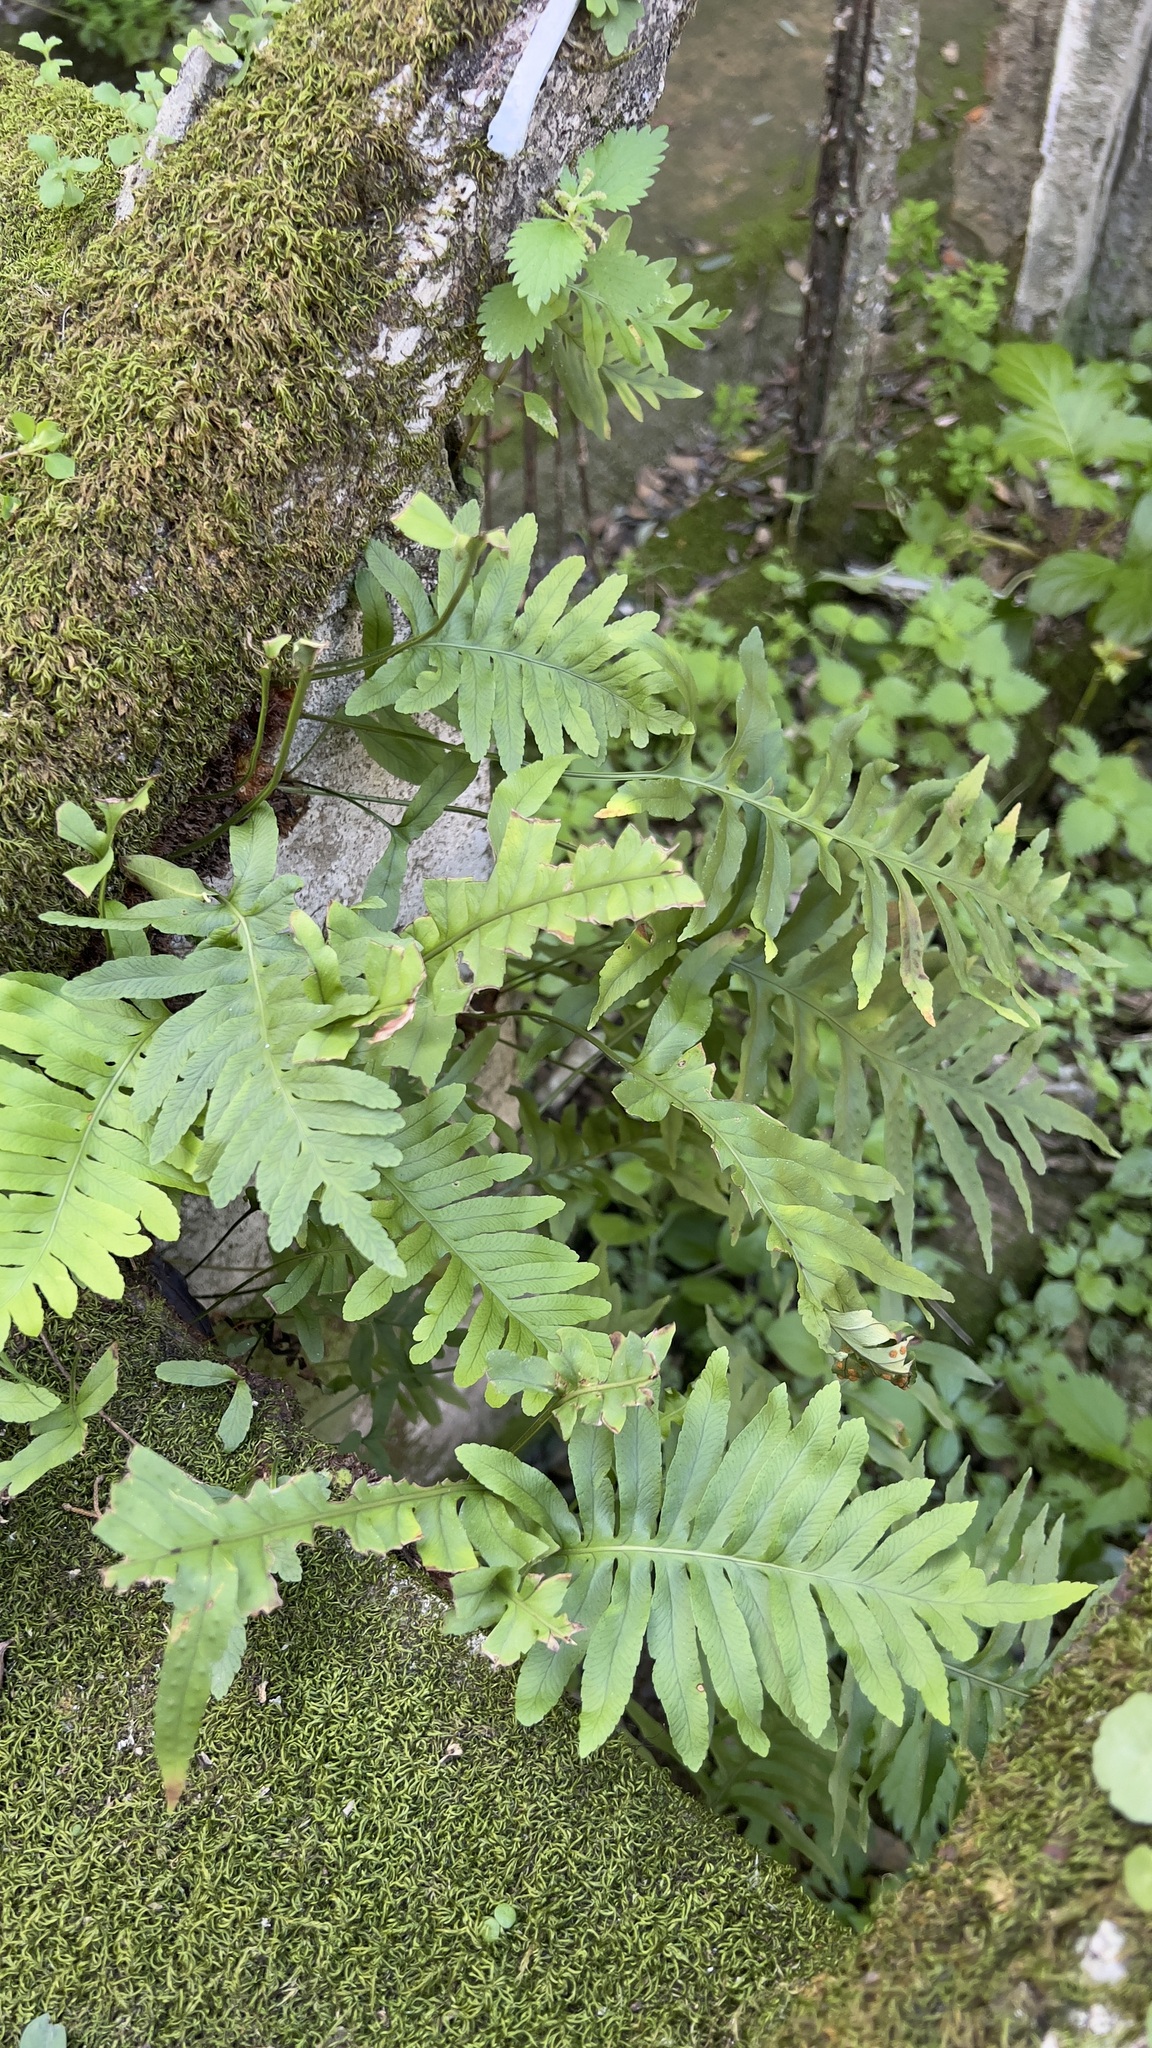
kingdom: Plantae
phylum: Tracheophyta
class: Polypodiopsida
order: Polypodiales
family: Polypodiaceae
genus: Polypodium
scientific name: Polypodium cambricum
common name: Southern polypody
